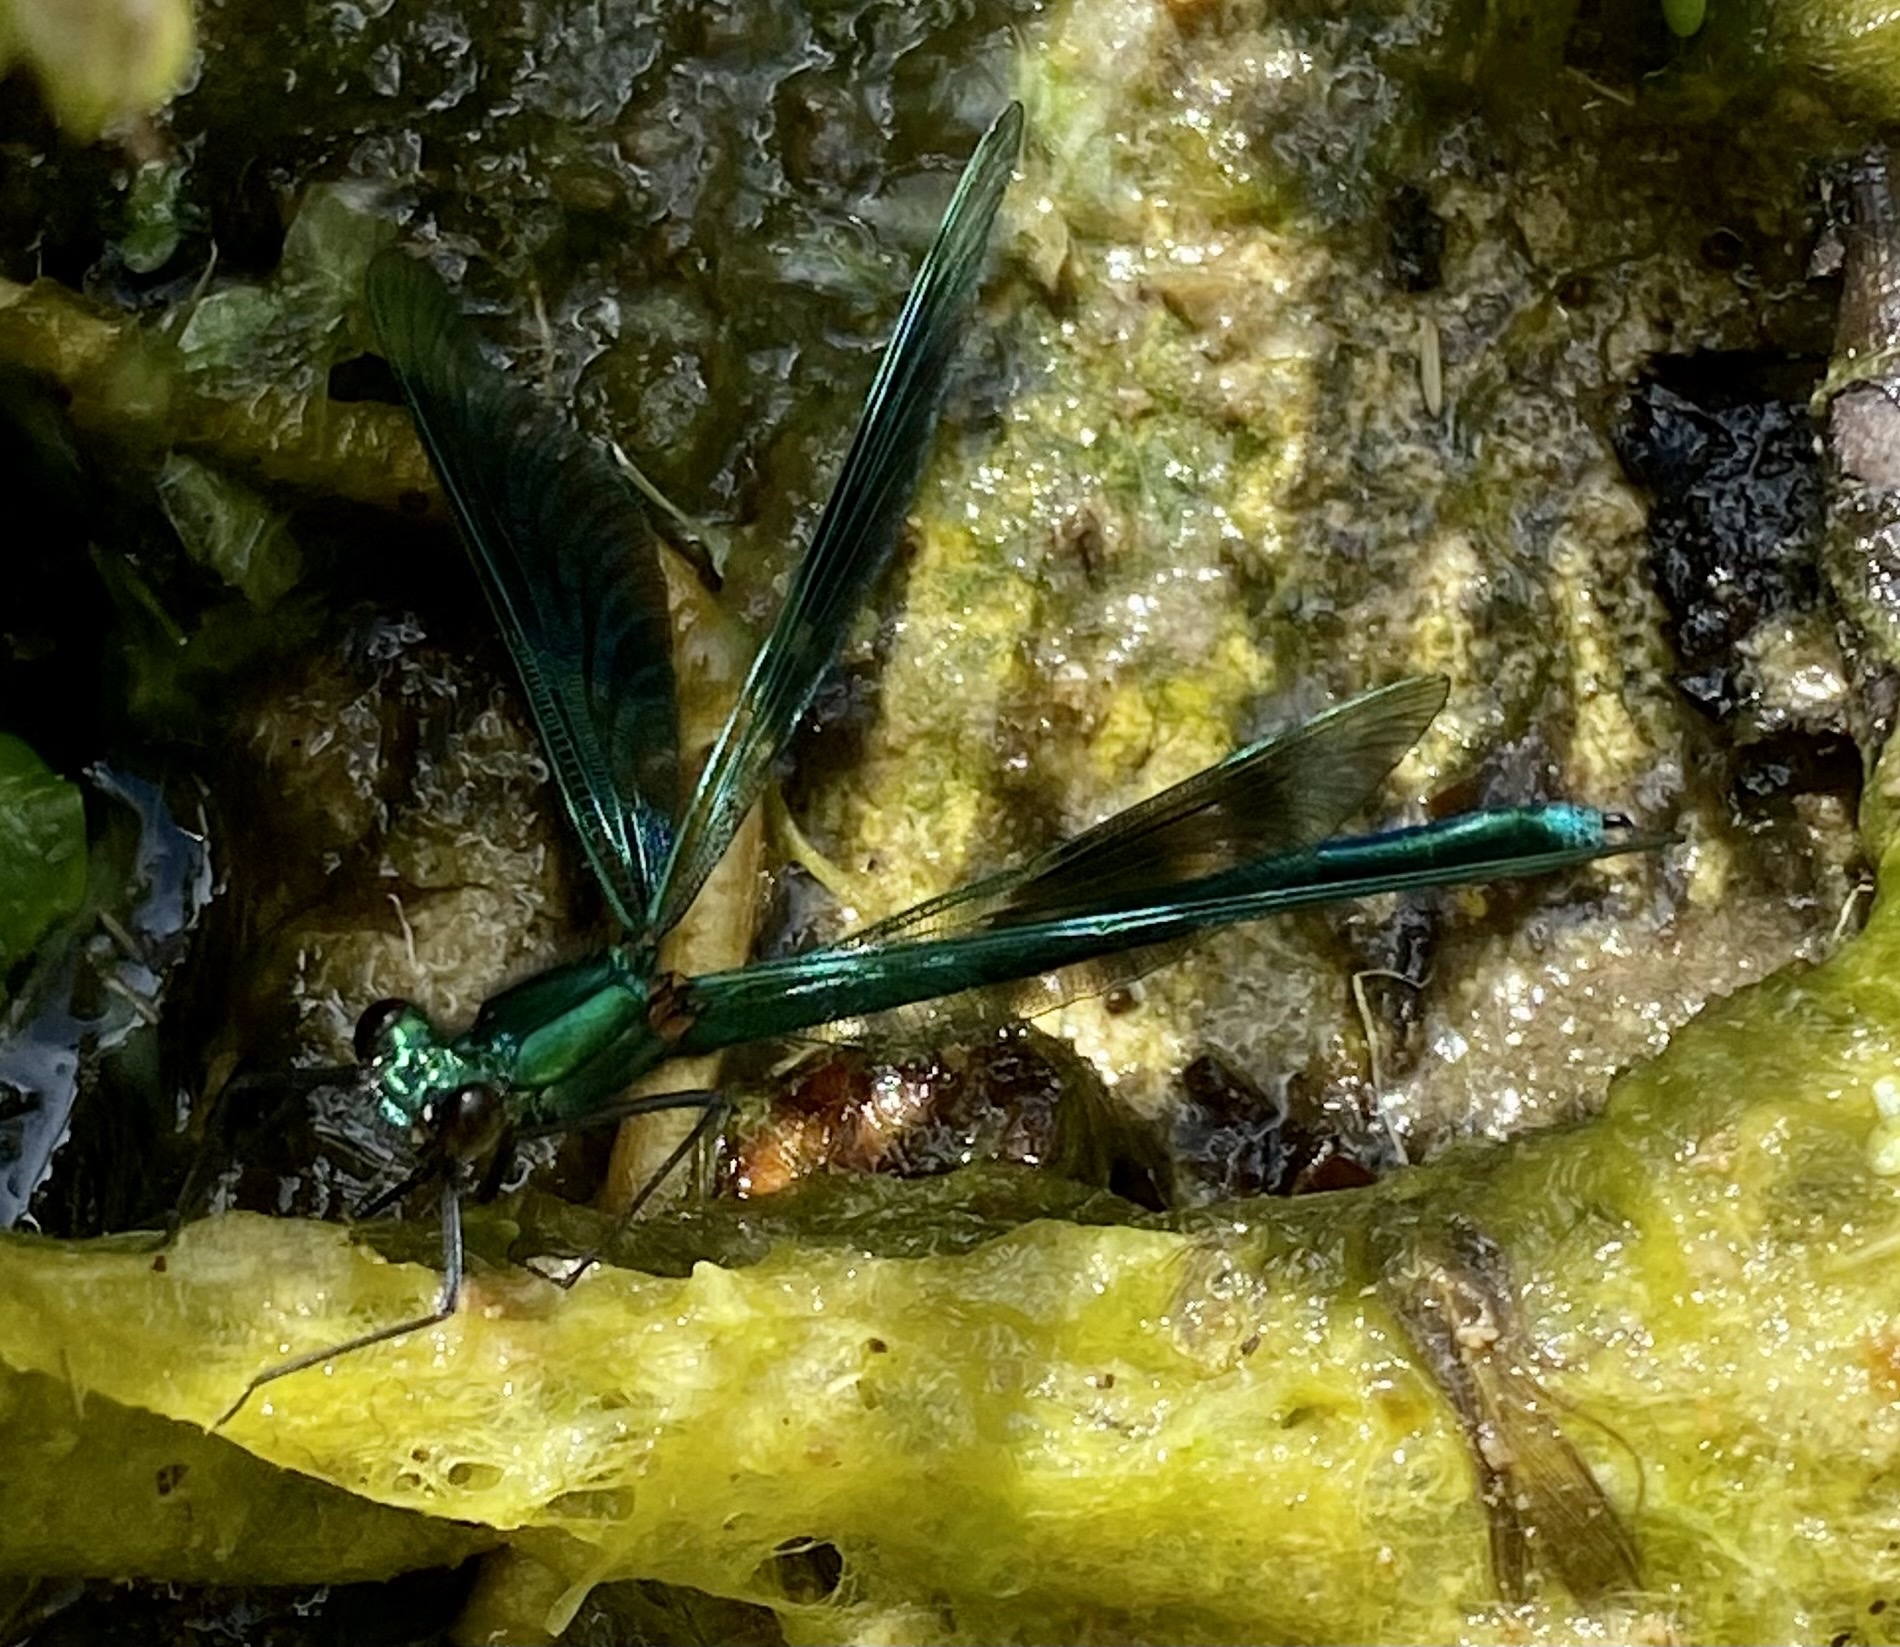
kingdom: Animalia
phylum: Arthropoda
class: Insecta
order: Odonata
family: Calopterygidae
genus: Calopteryx
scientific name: Calopteryx splendens
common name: Banded demoiselle
